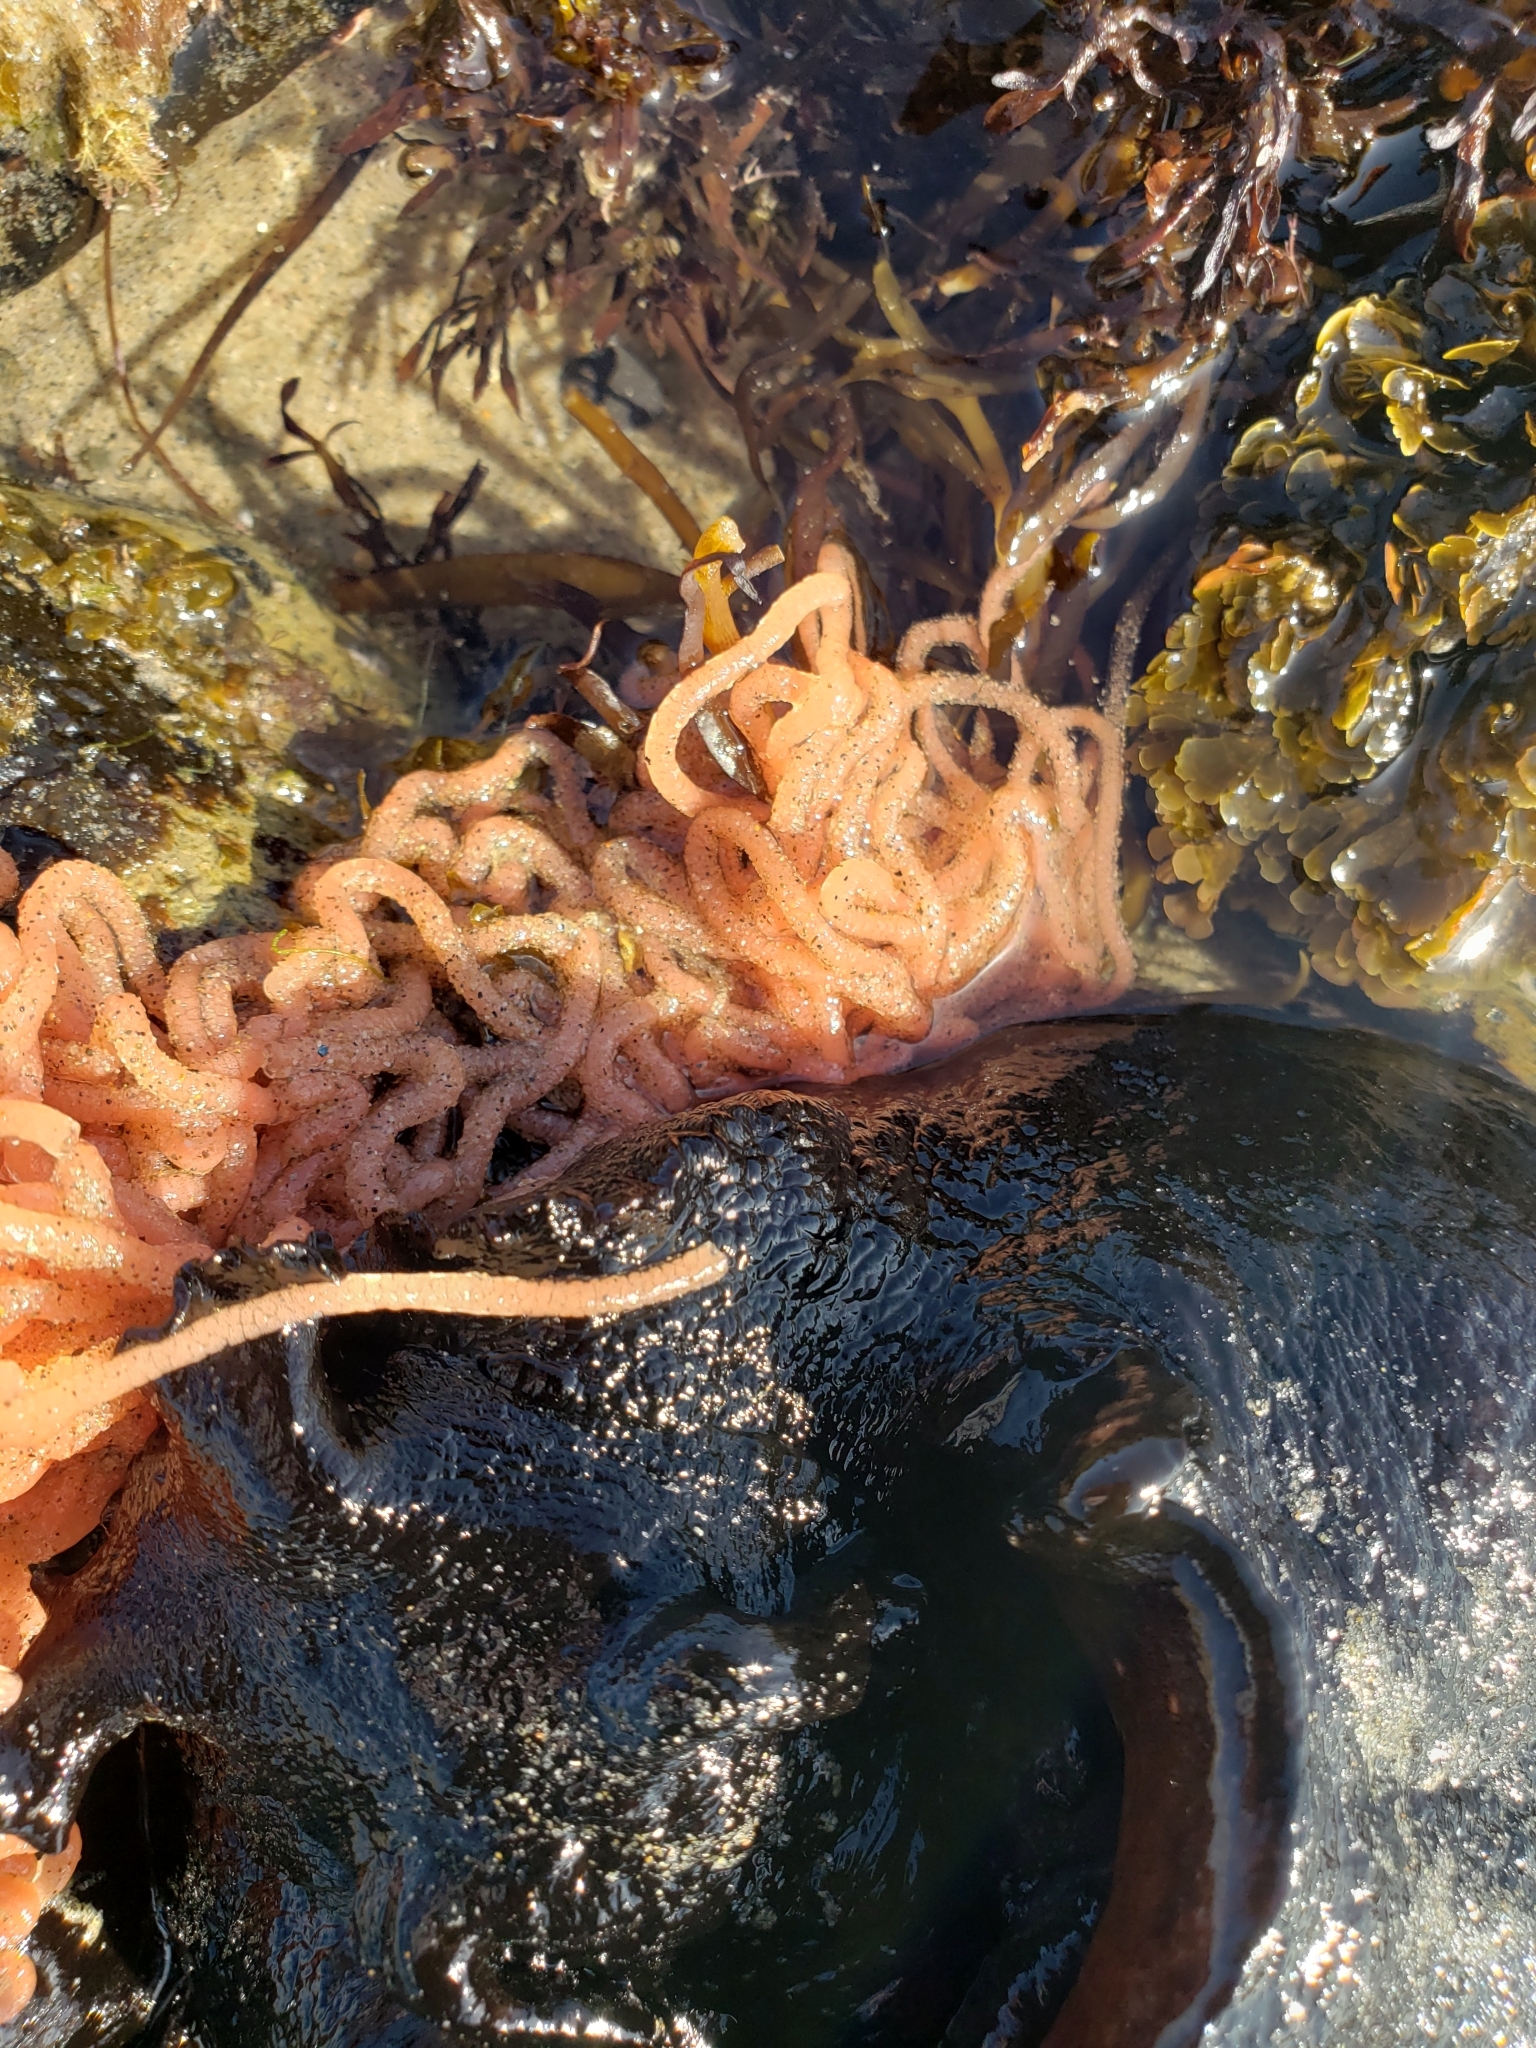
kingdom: Animalia
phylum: Mollusca
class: Gastropoda
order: Aplysiida
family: Aplysiidae
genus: Aplysia
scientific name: Aplysia vaccaria
